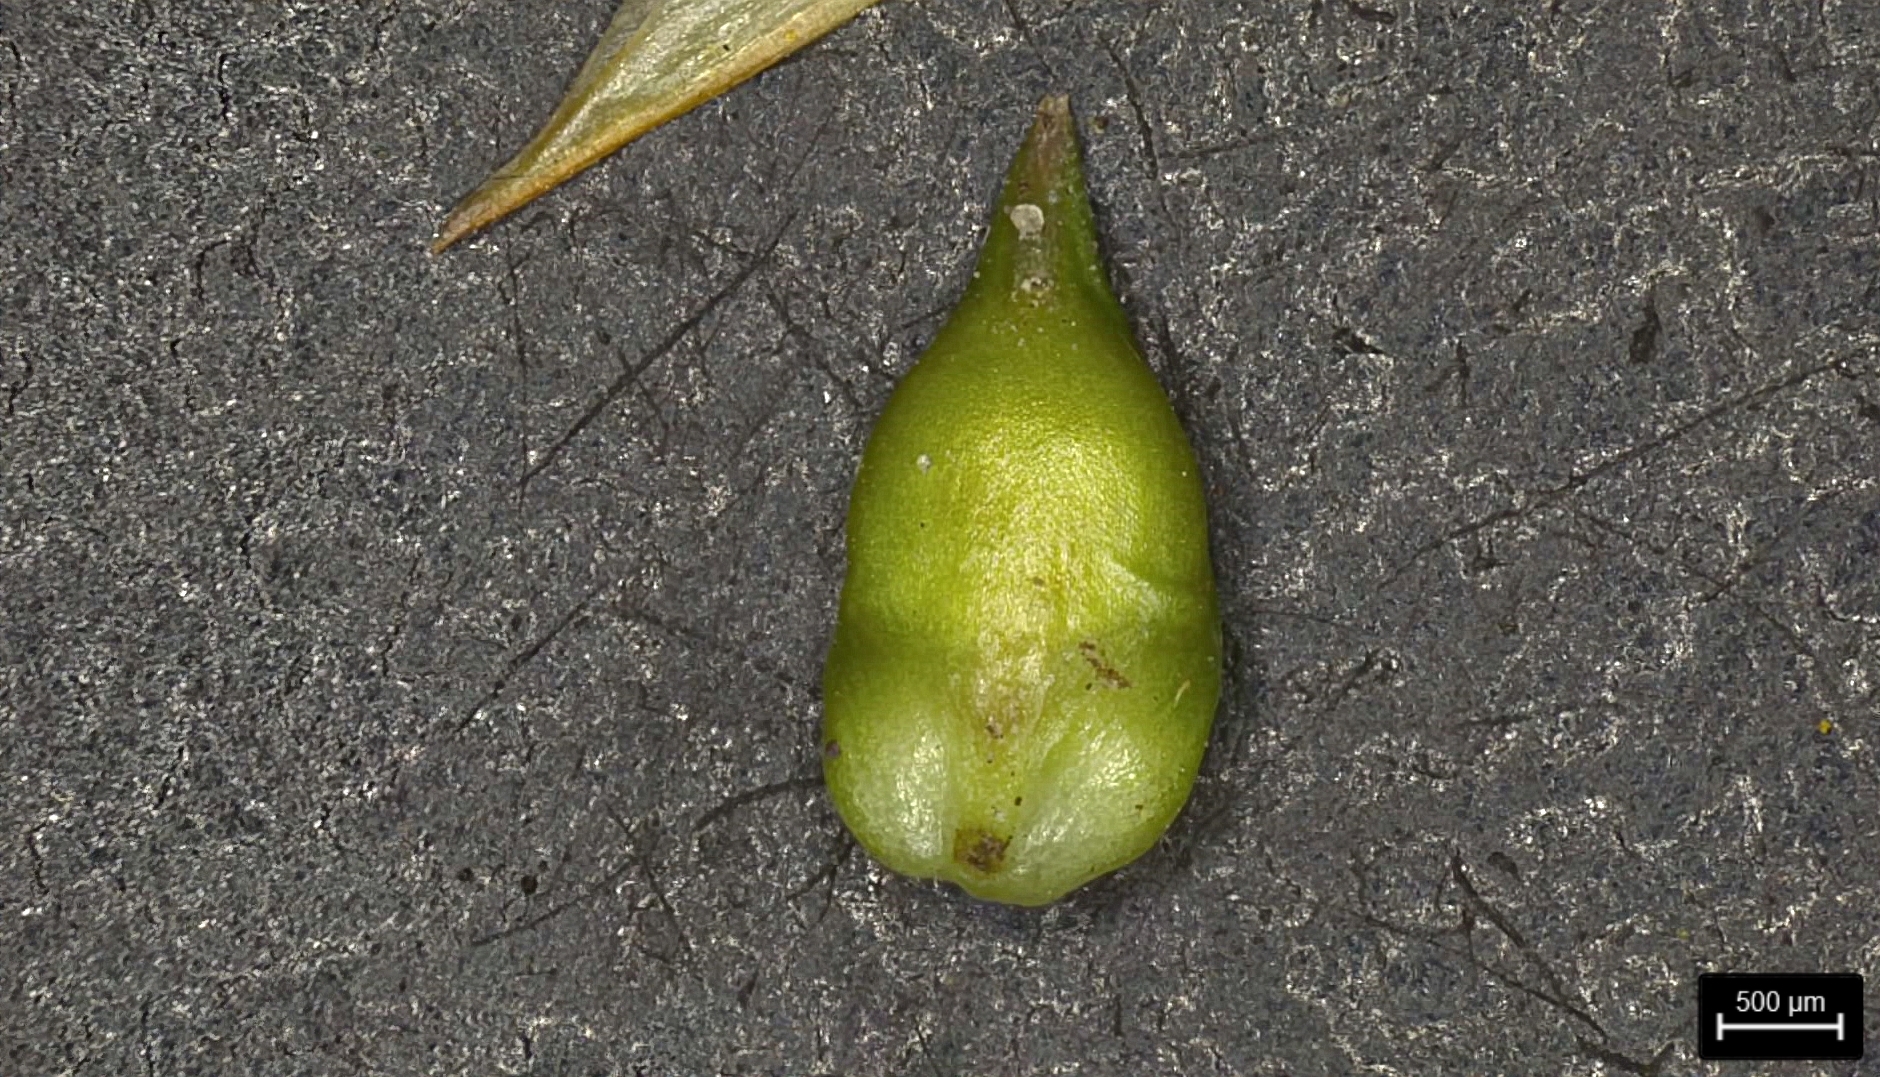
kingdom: Plantae
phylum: Tracheophyta
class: Liliopsida
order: Poales
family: Cyperaceae
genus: Carex
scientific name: Carex retroflexa
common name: Reflexed sedge
